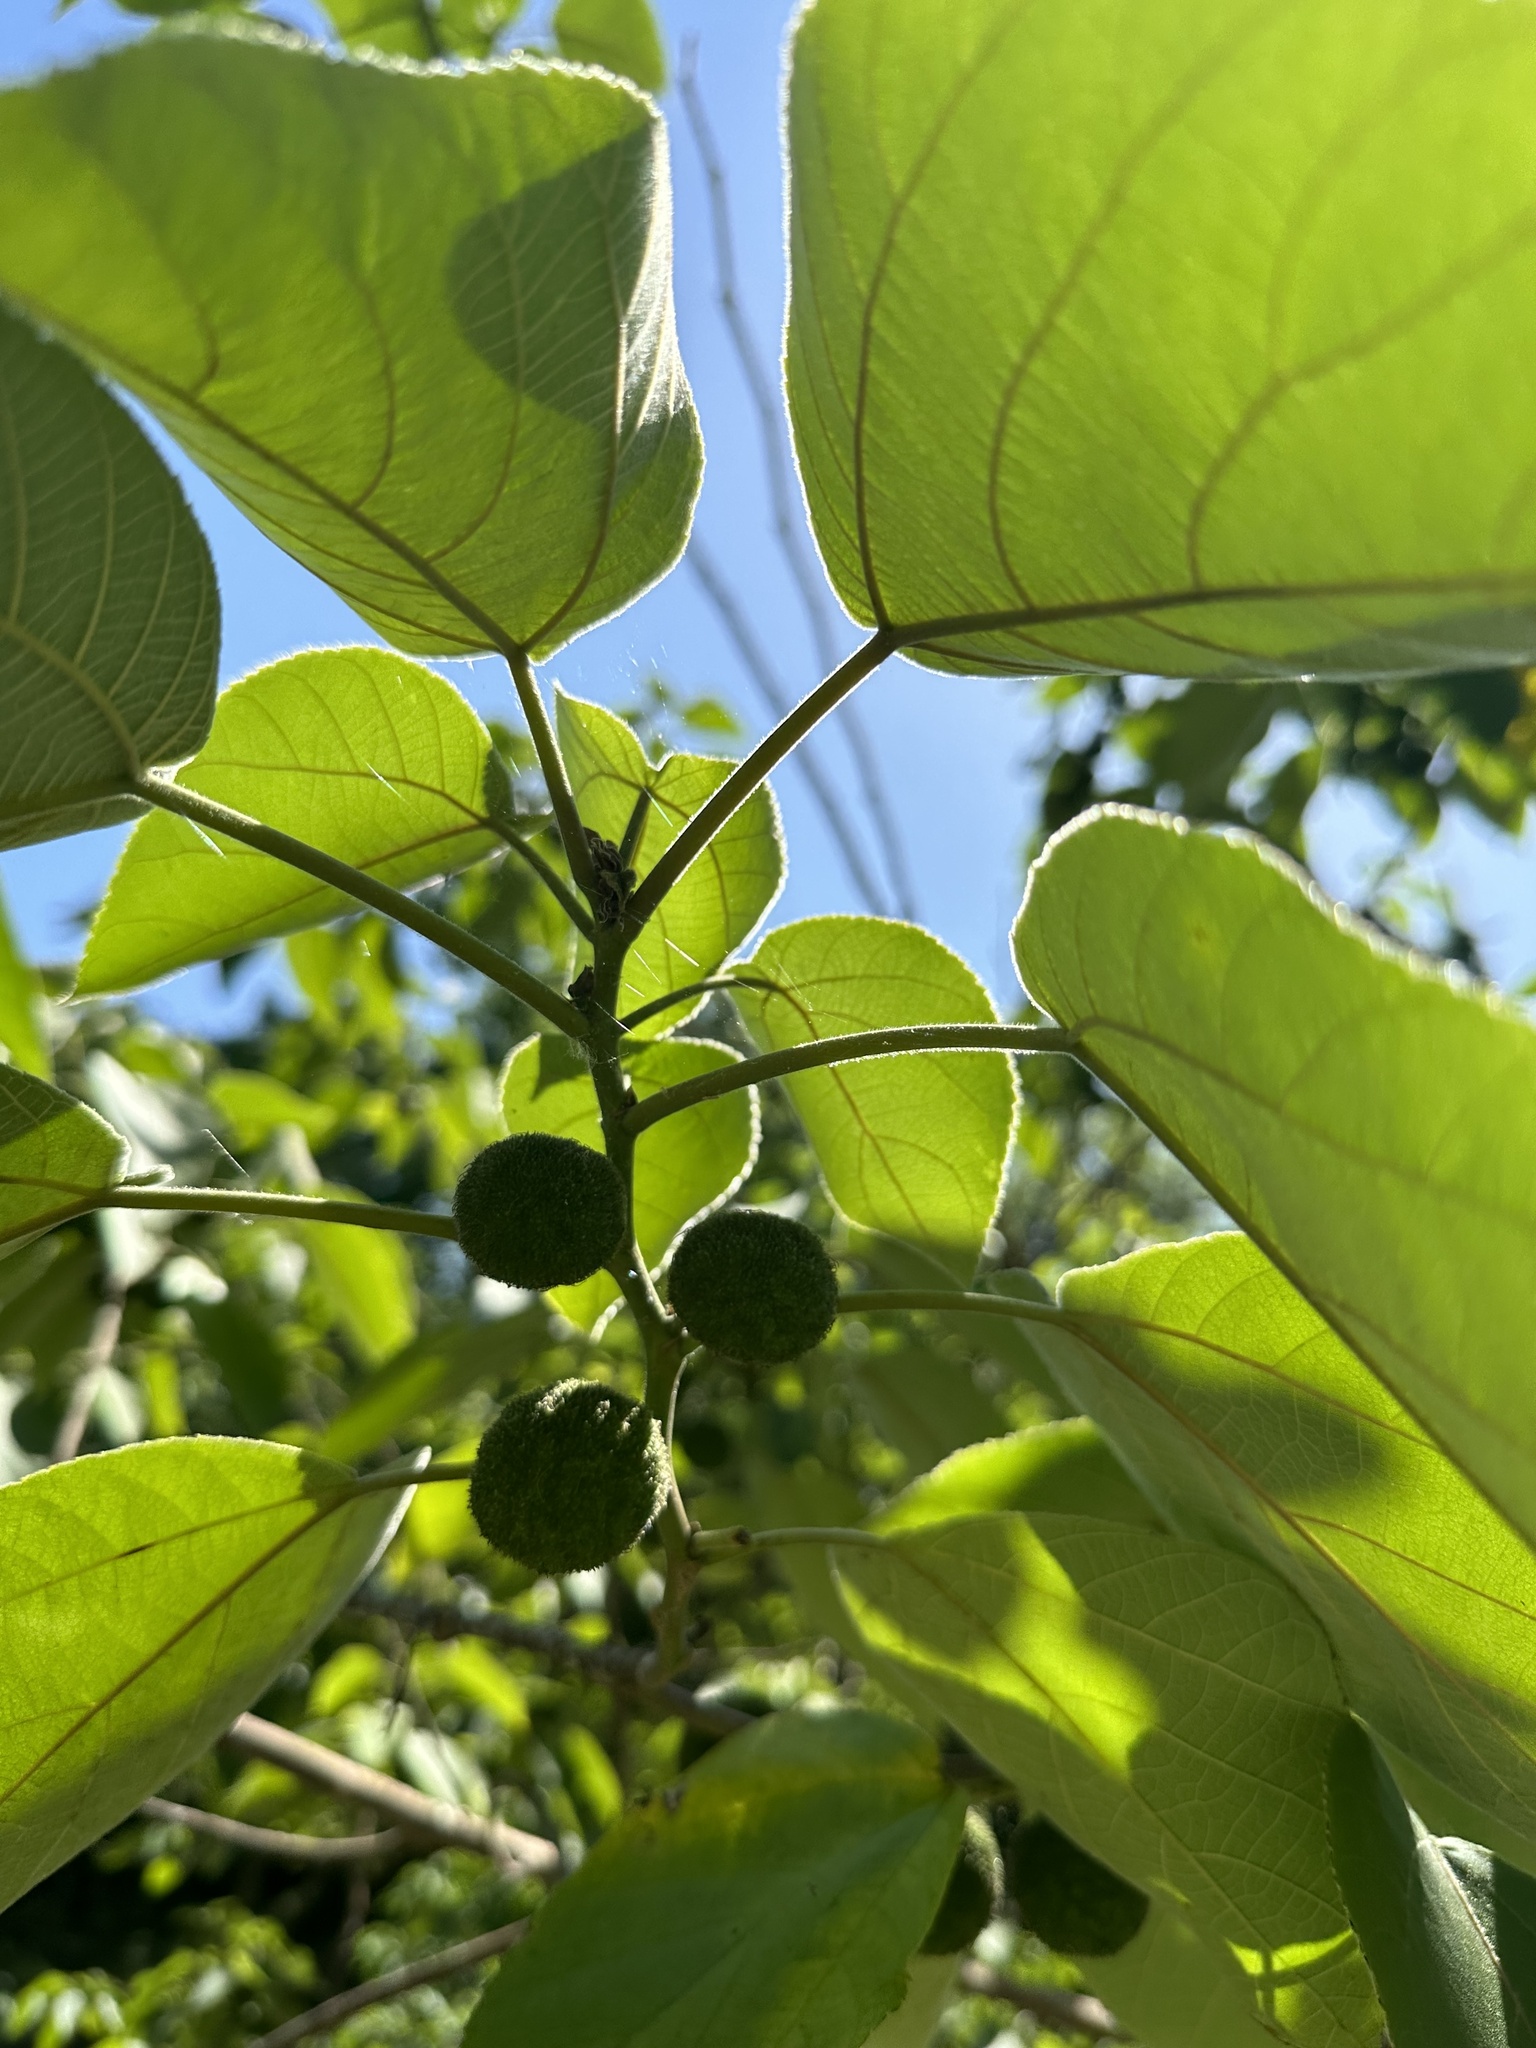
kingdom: Plantae
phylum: Tracheophyta
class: Magnoliopsida
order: Rosales
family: Moraceae
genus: Broussonetia
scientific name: Broussonetia papyrifera
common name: Paper mulberry
